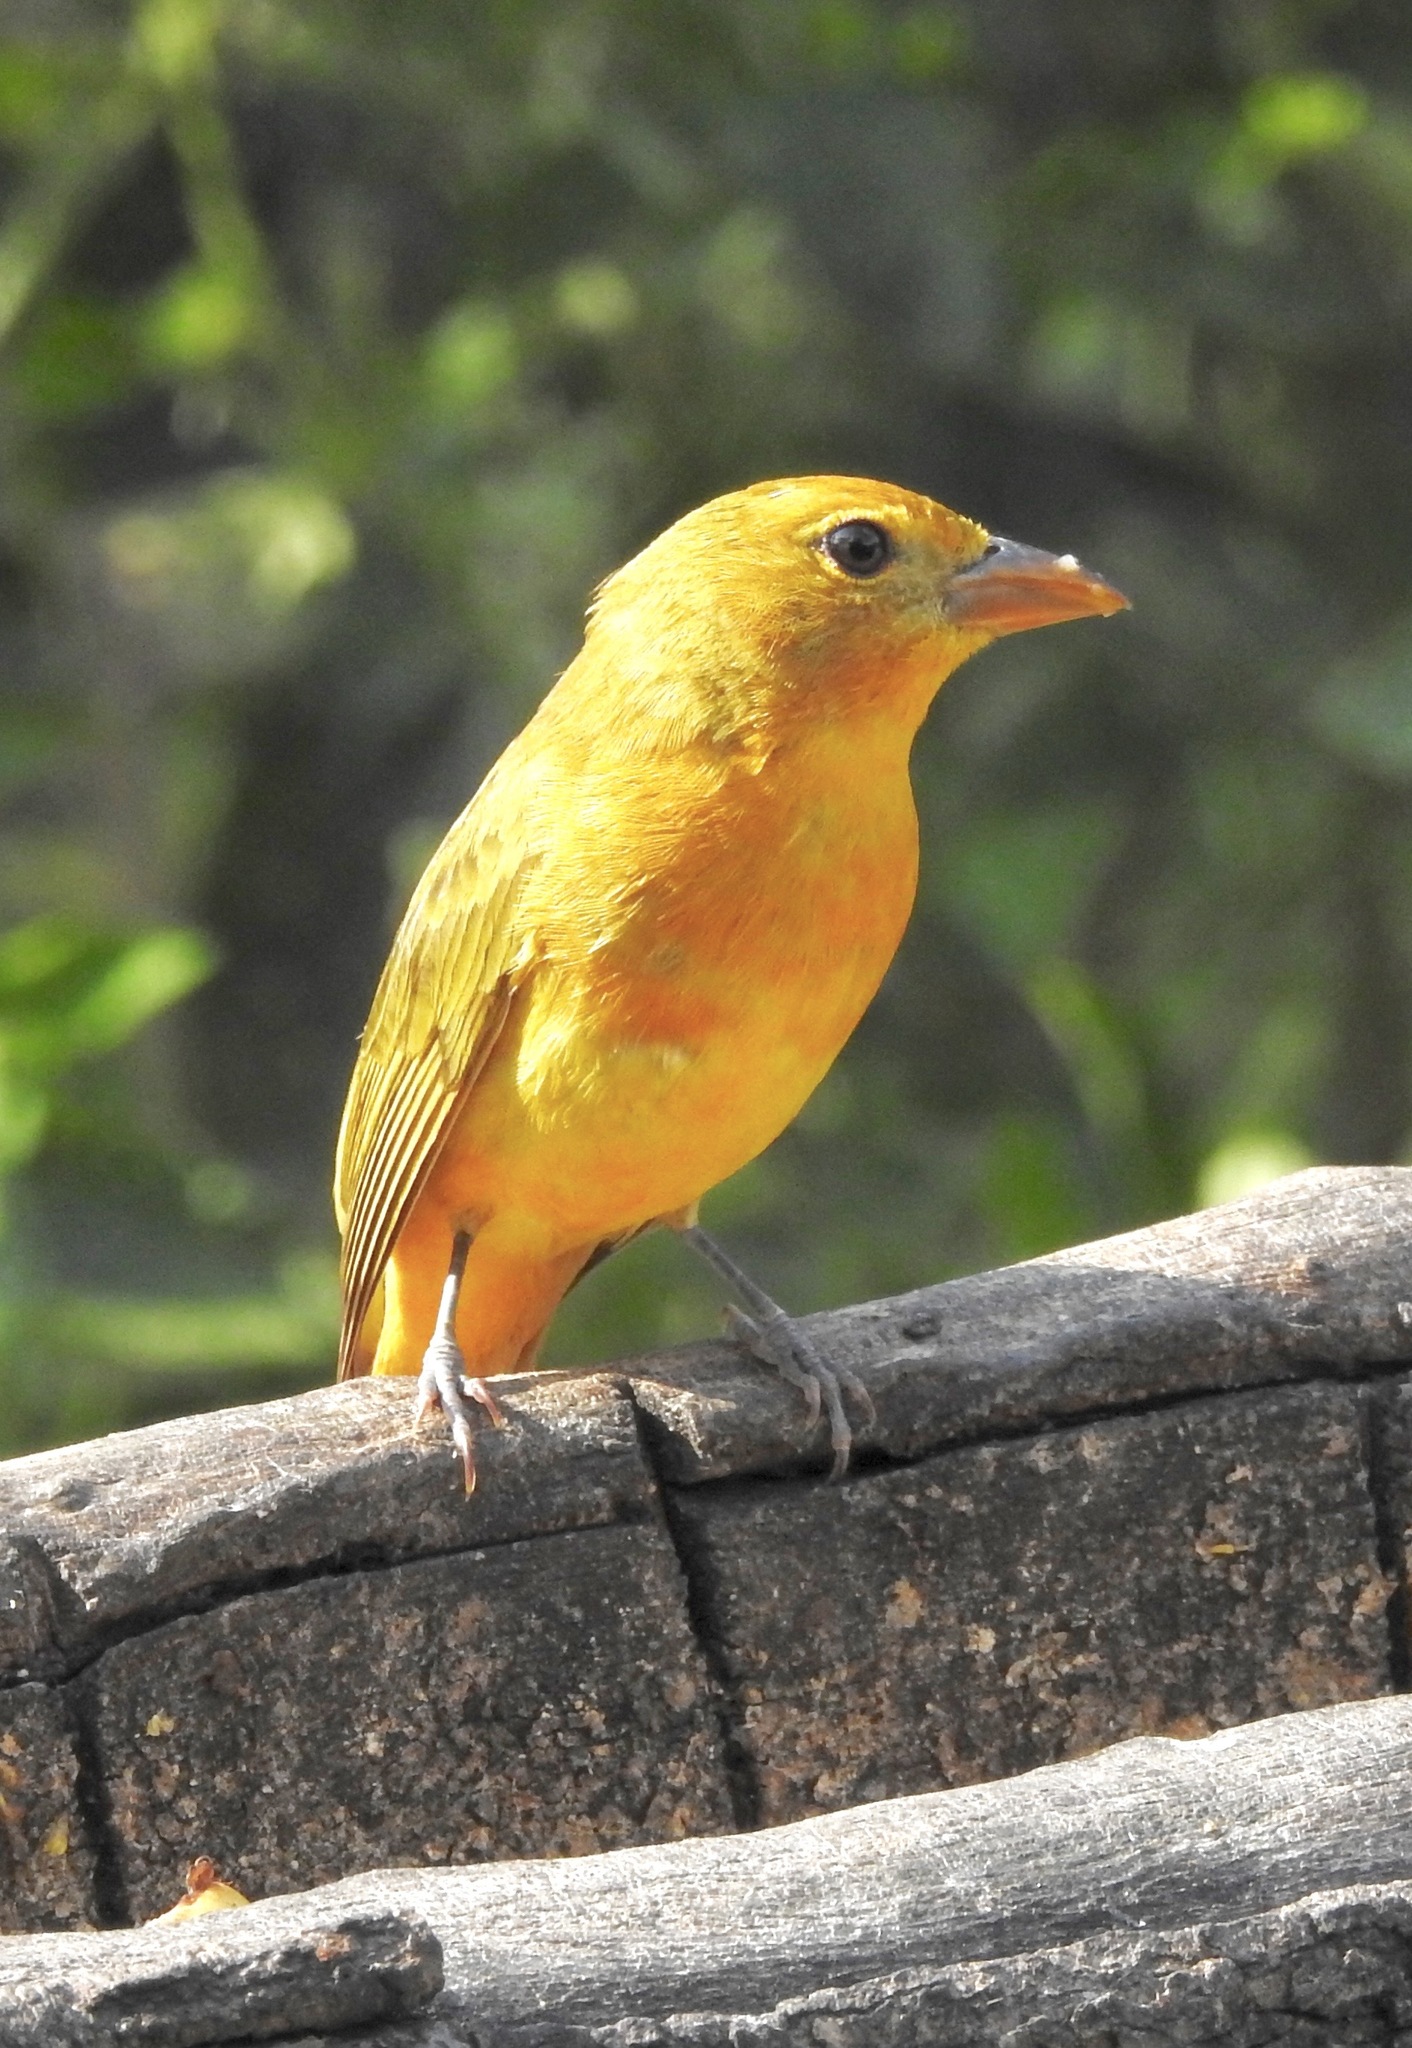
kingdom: Animalia
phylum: Chordata
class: Aves
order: Passeriformes
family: Cardinalidae
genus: Piranga
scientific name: Piranga rubra
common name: Summer tanager
